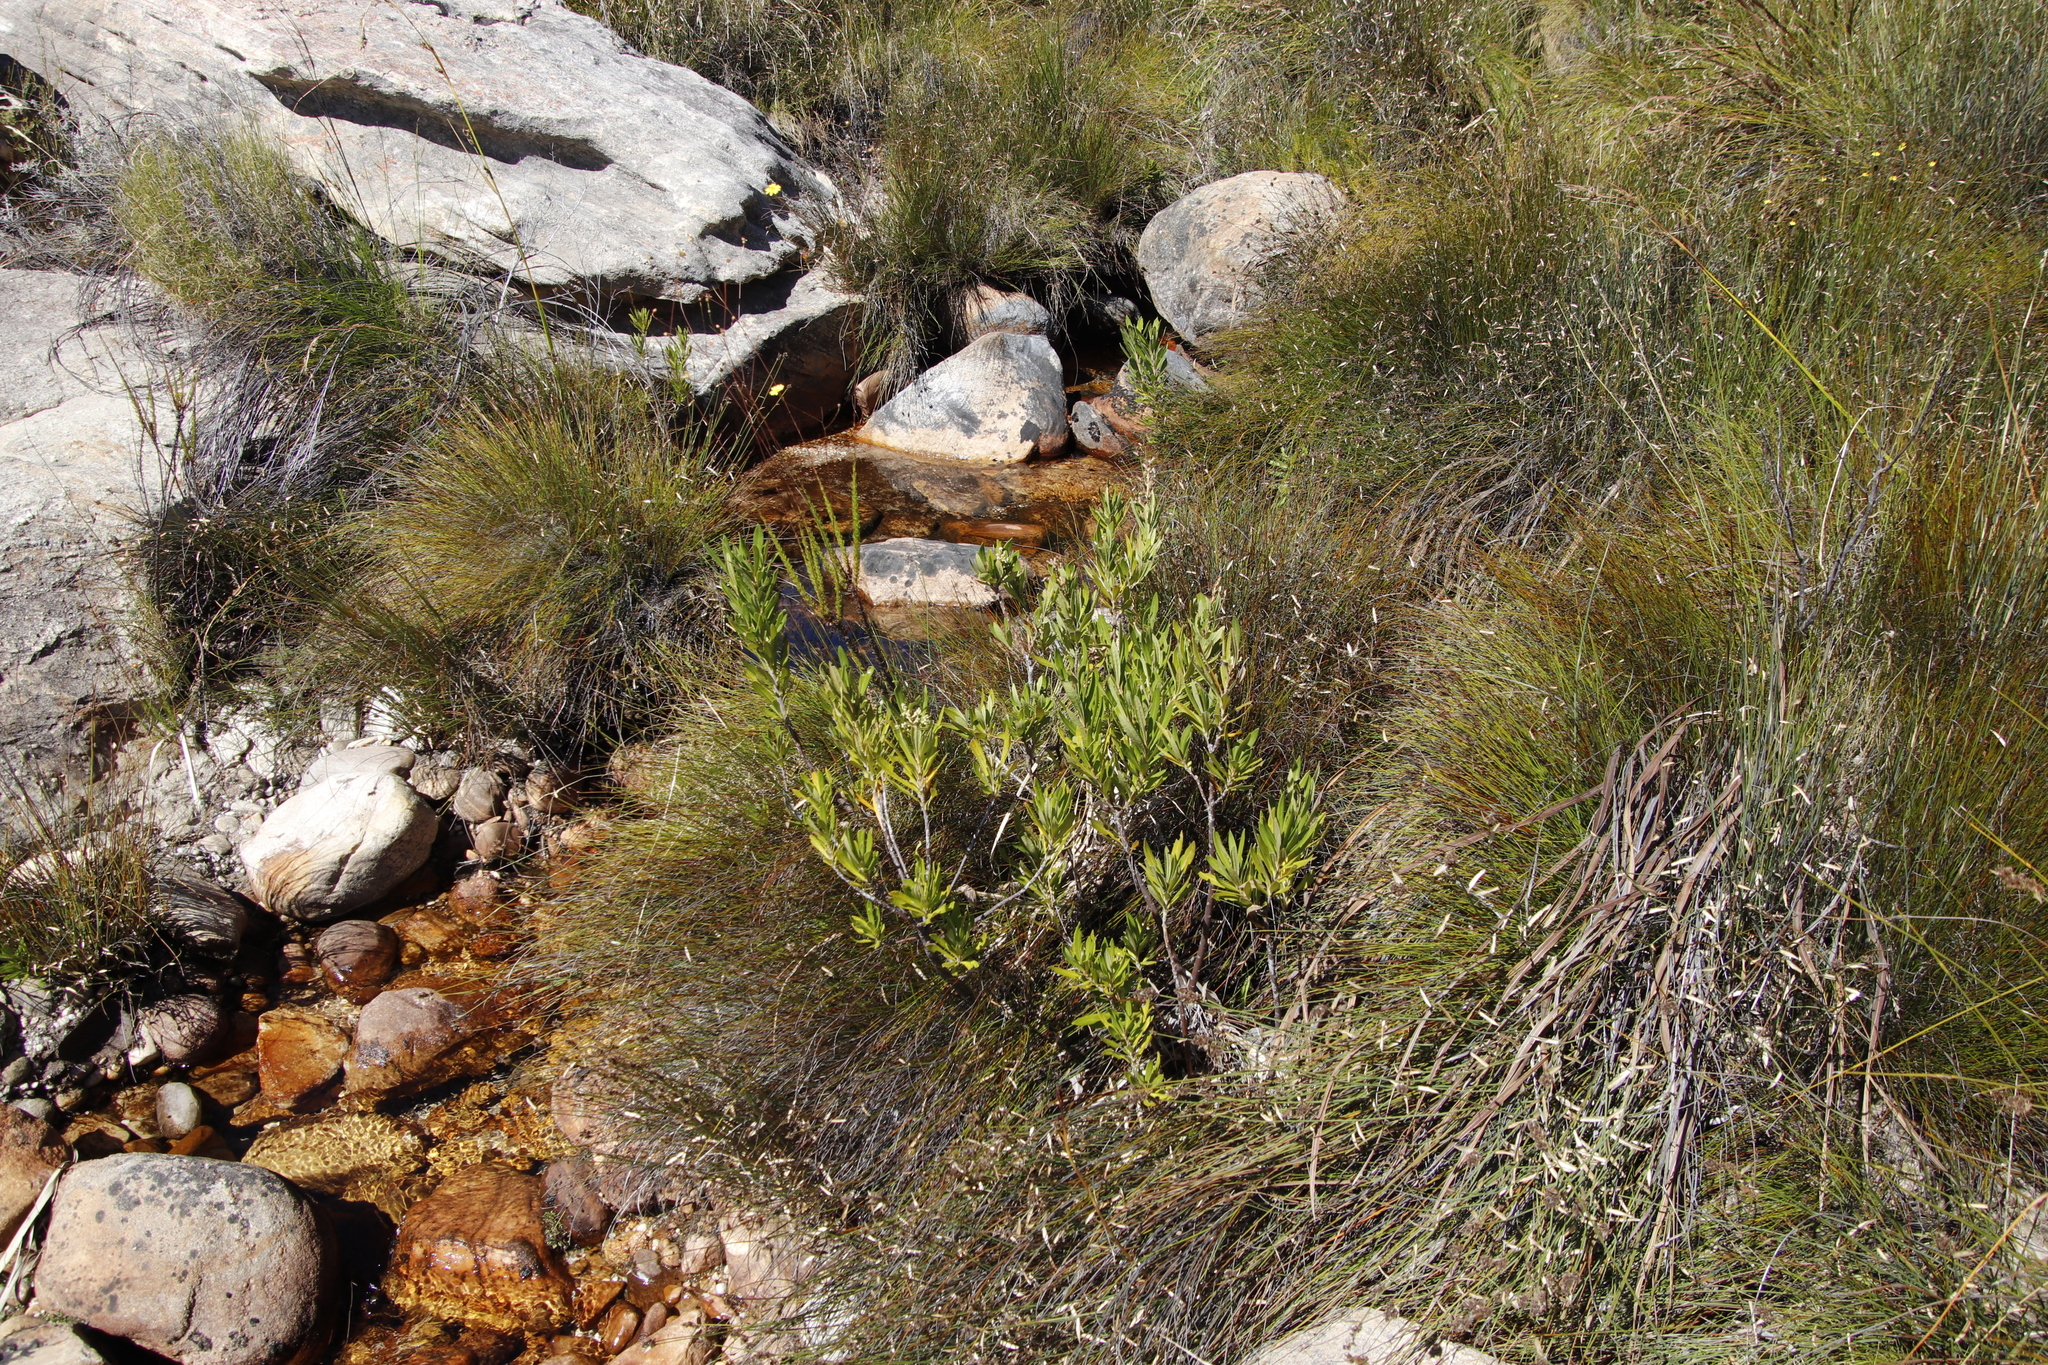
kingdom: Plantae
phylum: Tracheophyta
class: Magnoliopsida
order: Asterales
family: Asteraceae
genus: Brachylaena
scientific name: Brachylaena neriifolia
